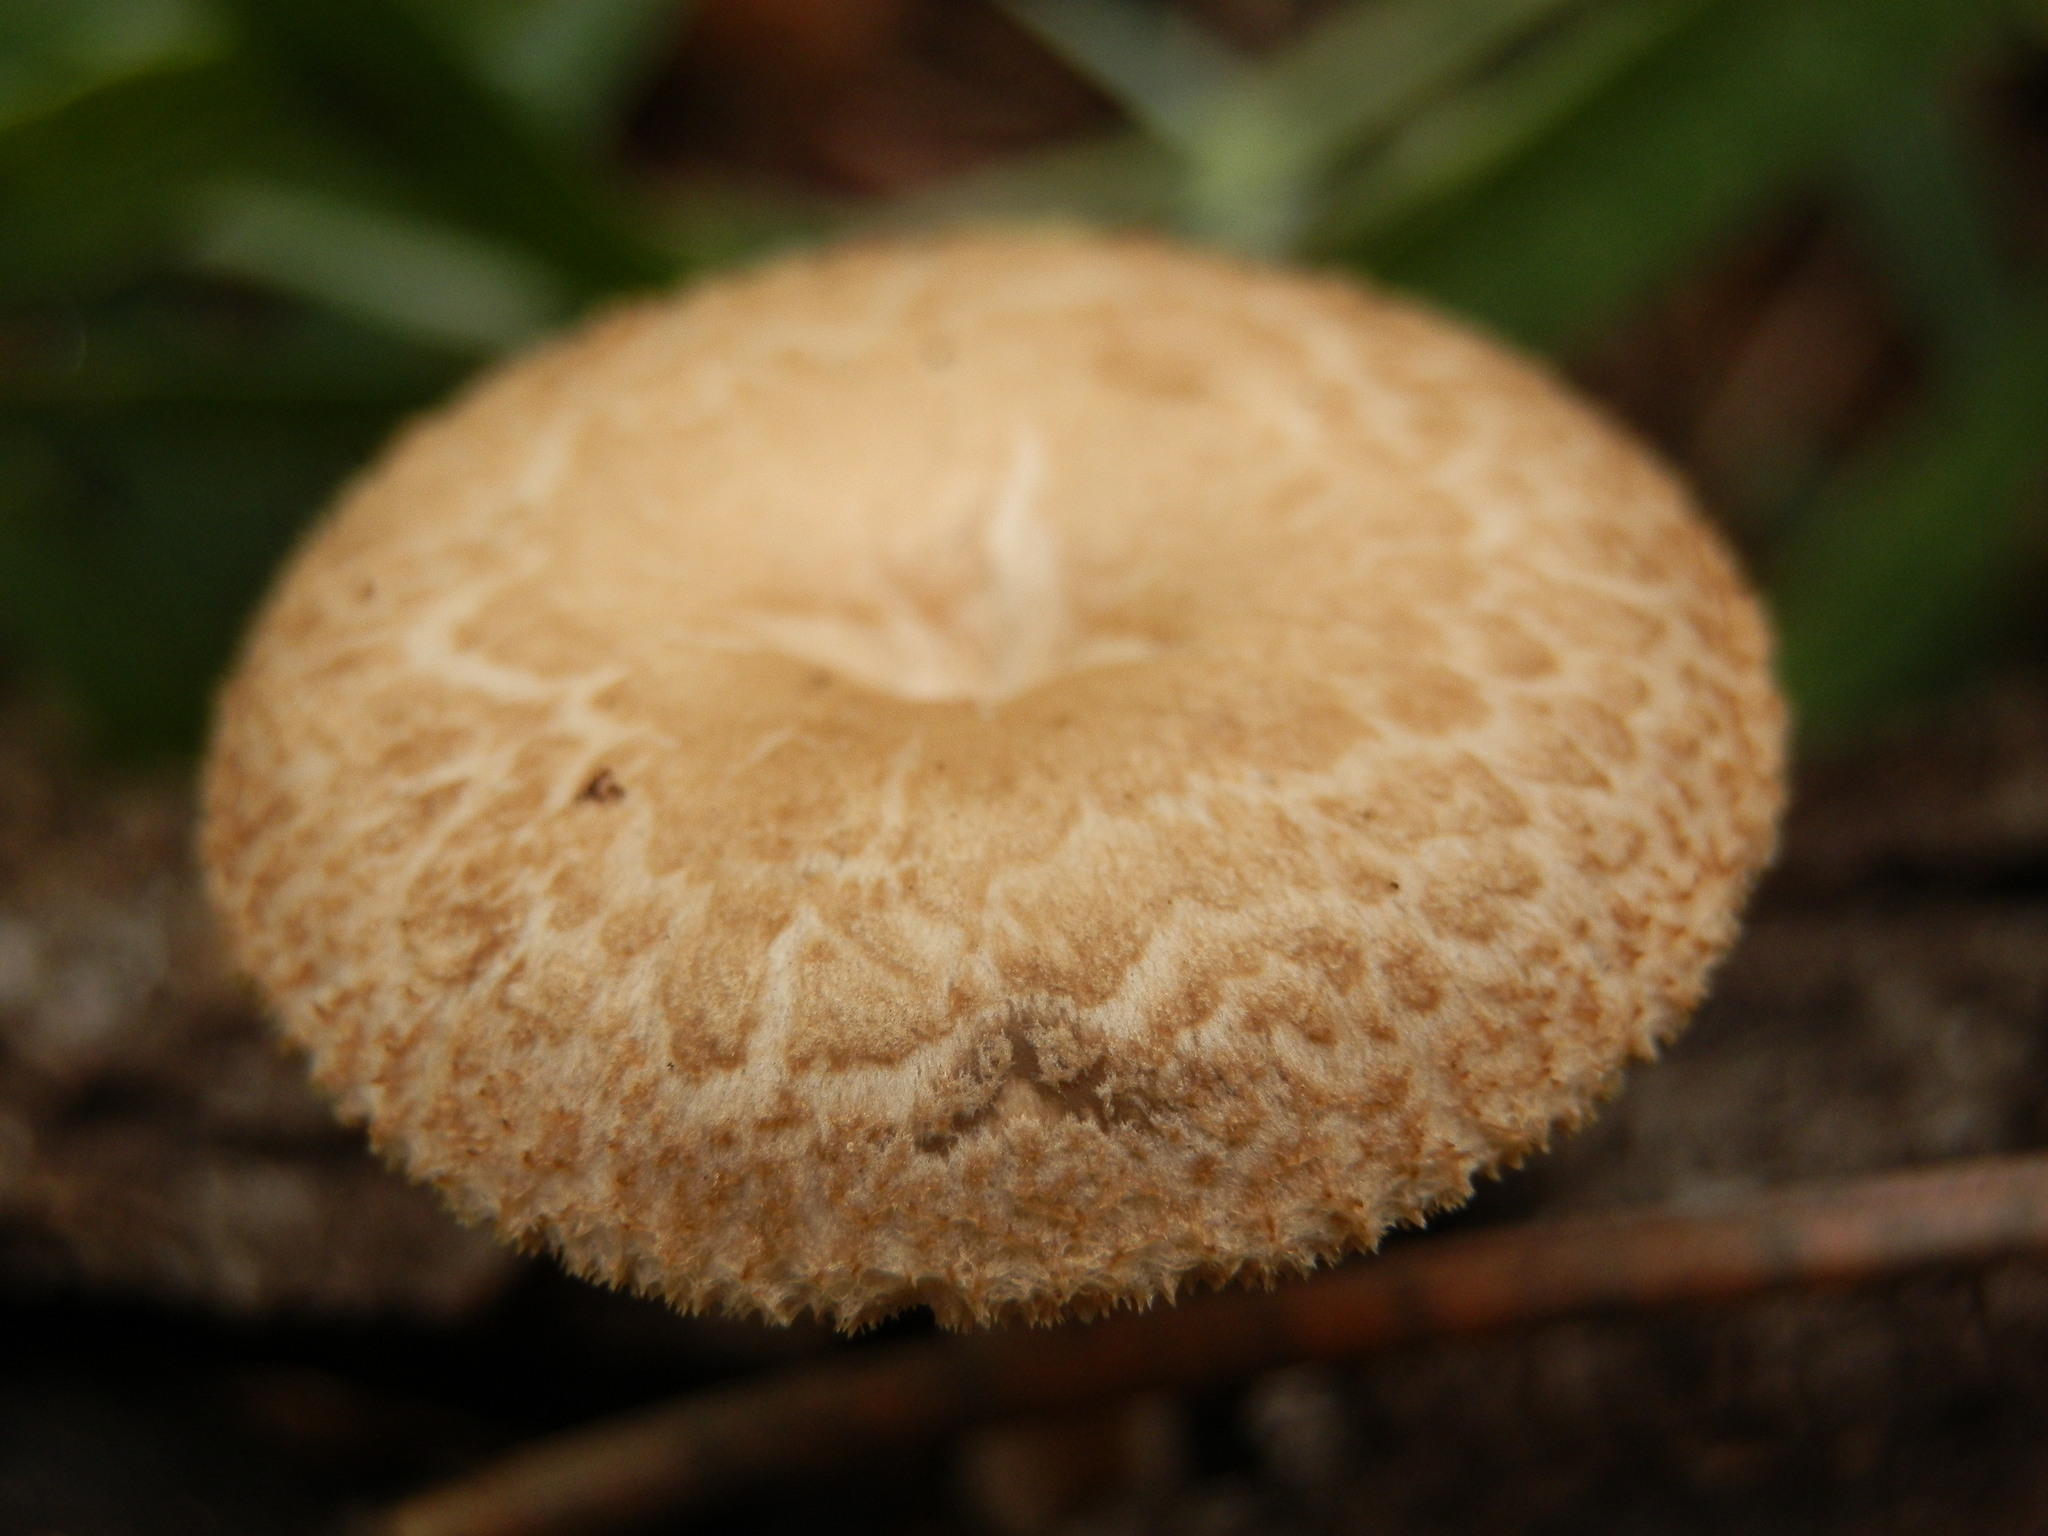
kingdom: Fungi
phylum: Basidiomycota
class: Agaricomycetes
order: Polyporales
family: Polyporaceae
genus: Lentinus
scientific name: Lentinus arcularius
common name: Spring polypore
